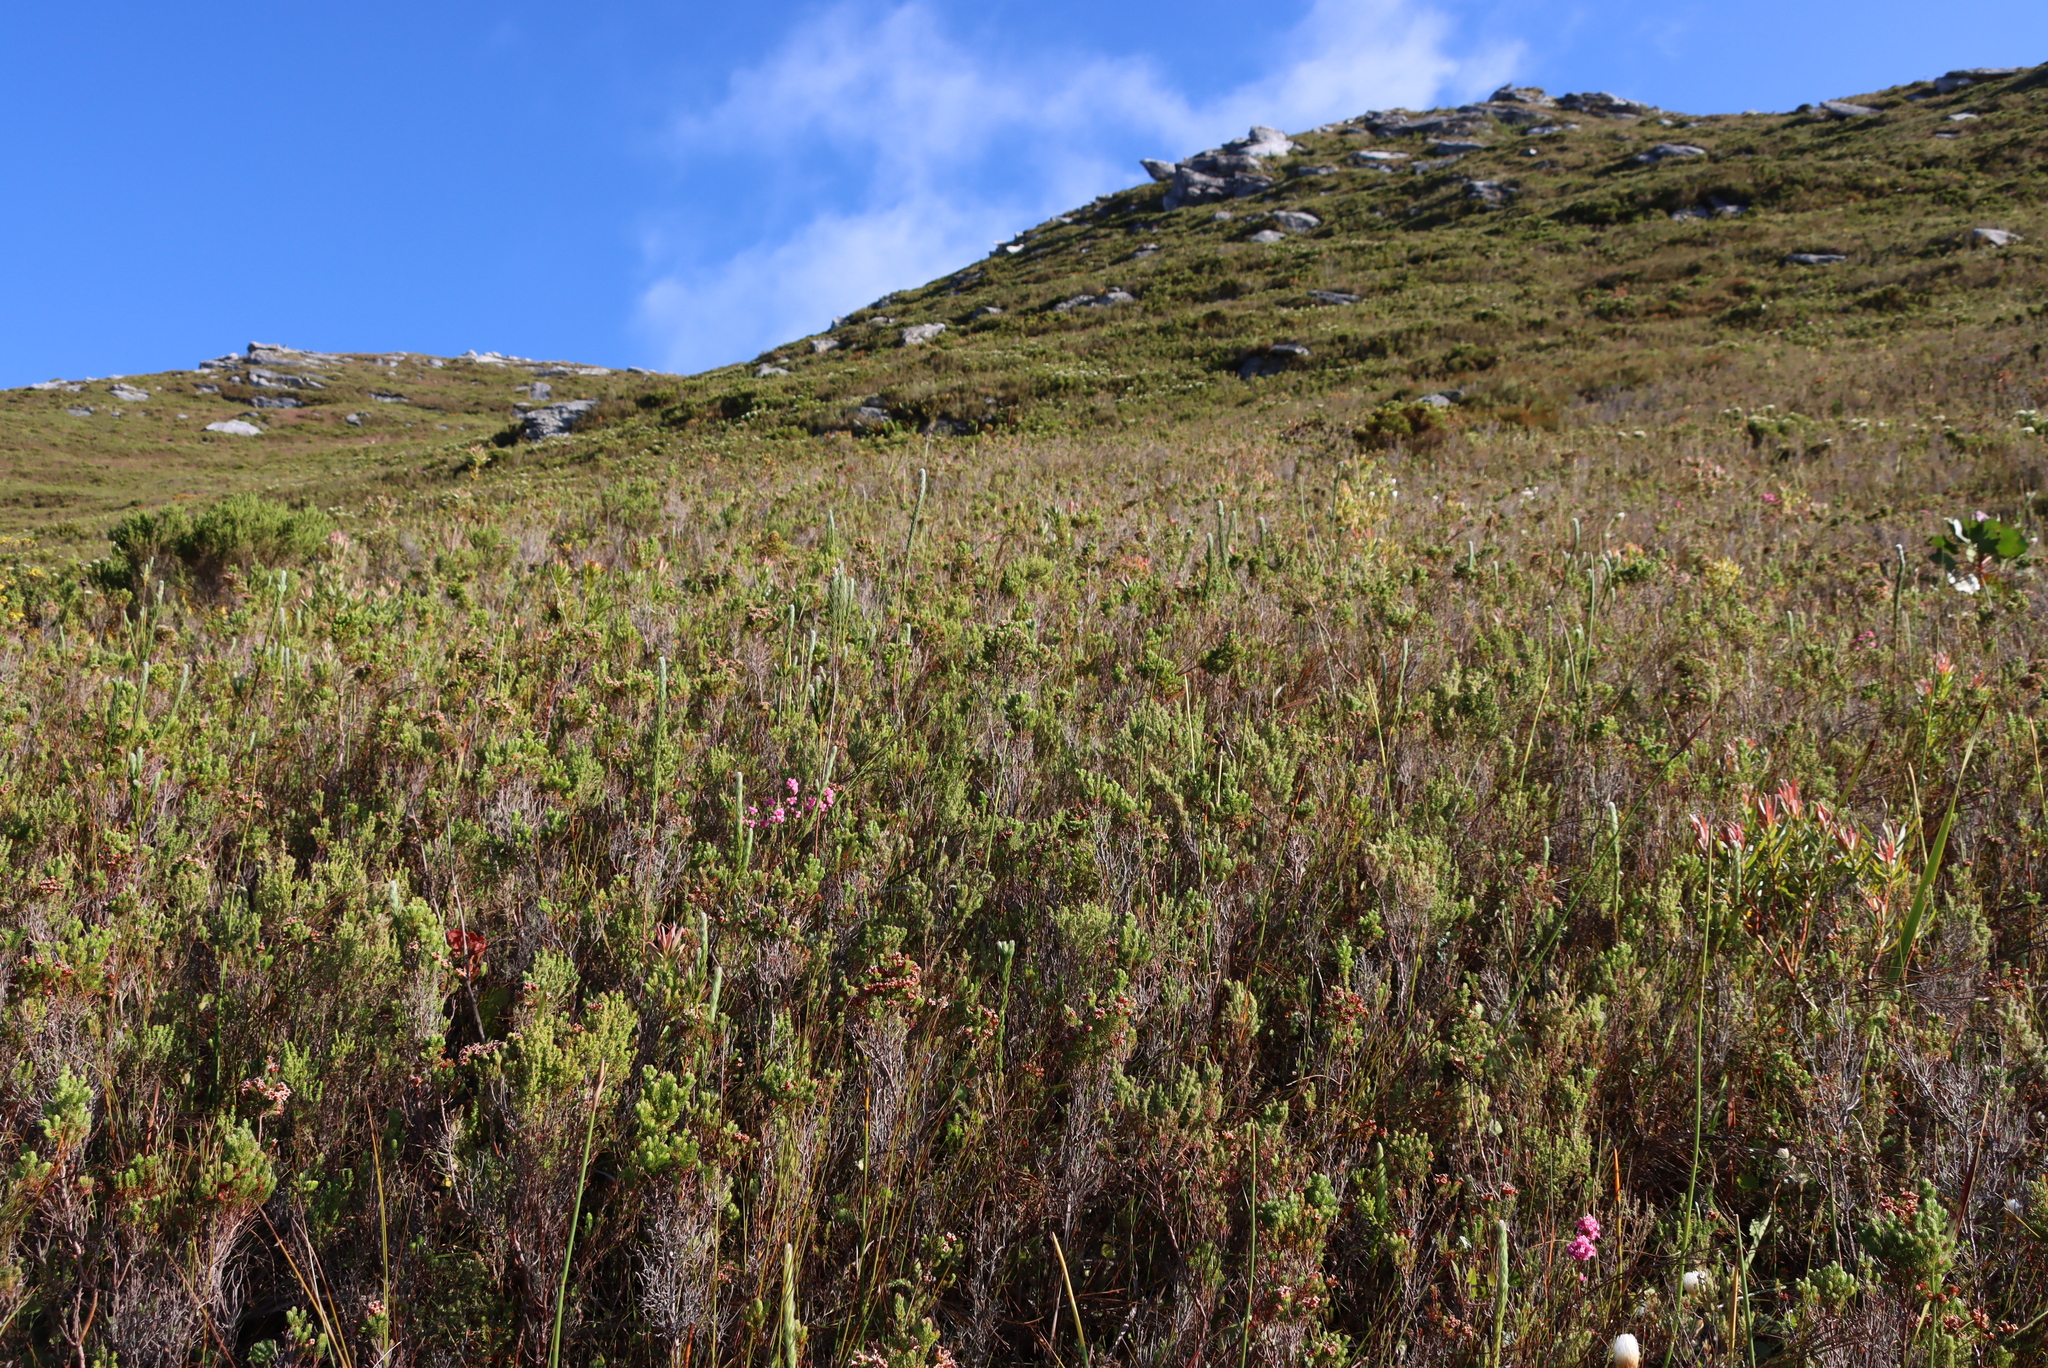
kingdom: Plantae
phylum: Tracheophyta
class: Magnoliopsida
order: Ericales
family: Ericaceae
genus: Erica
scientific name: Erica penicilliformis
